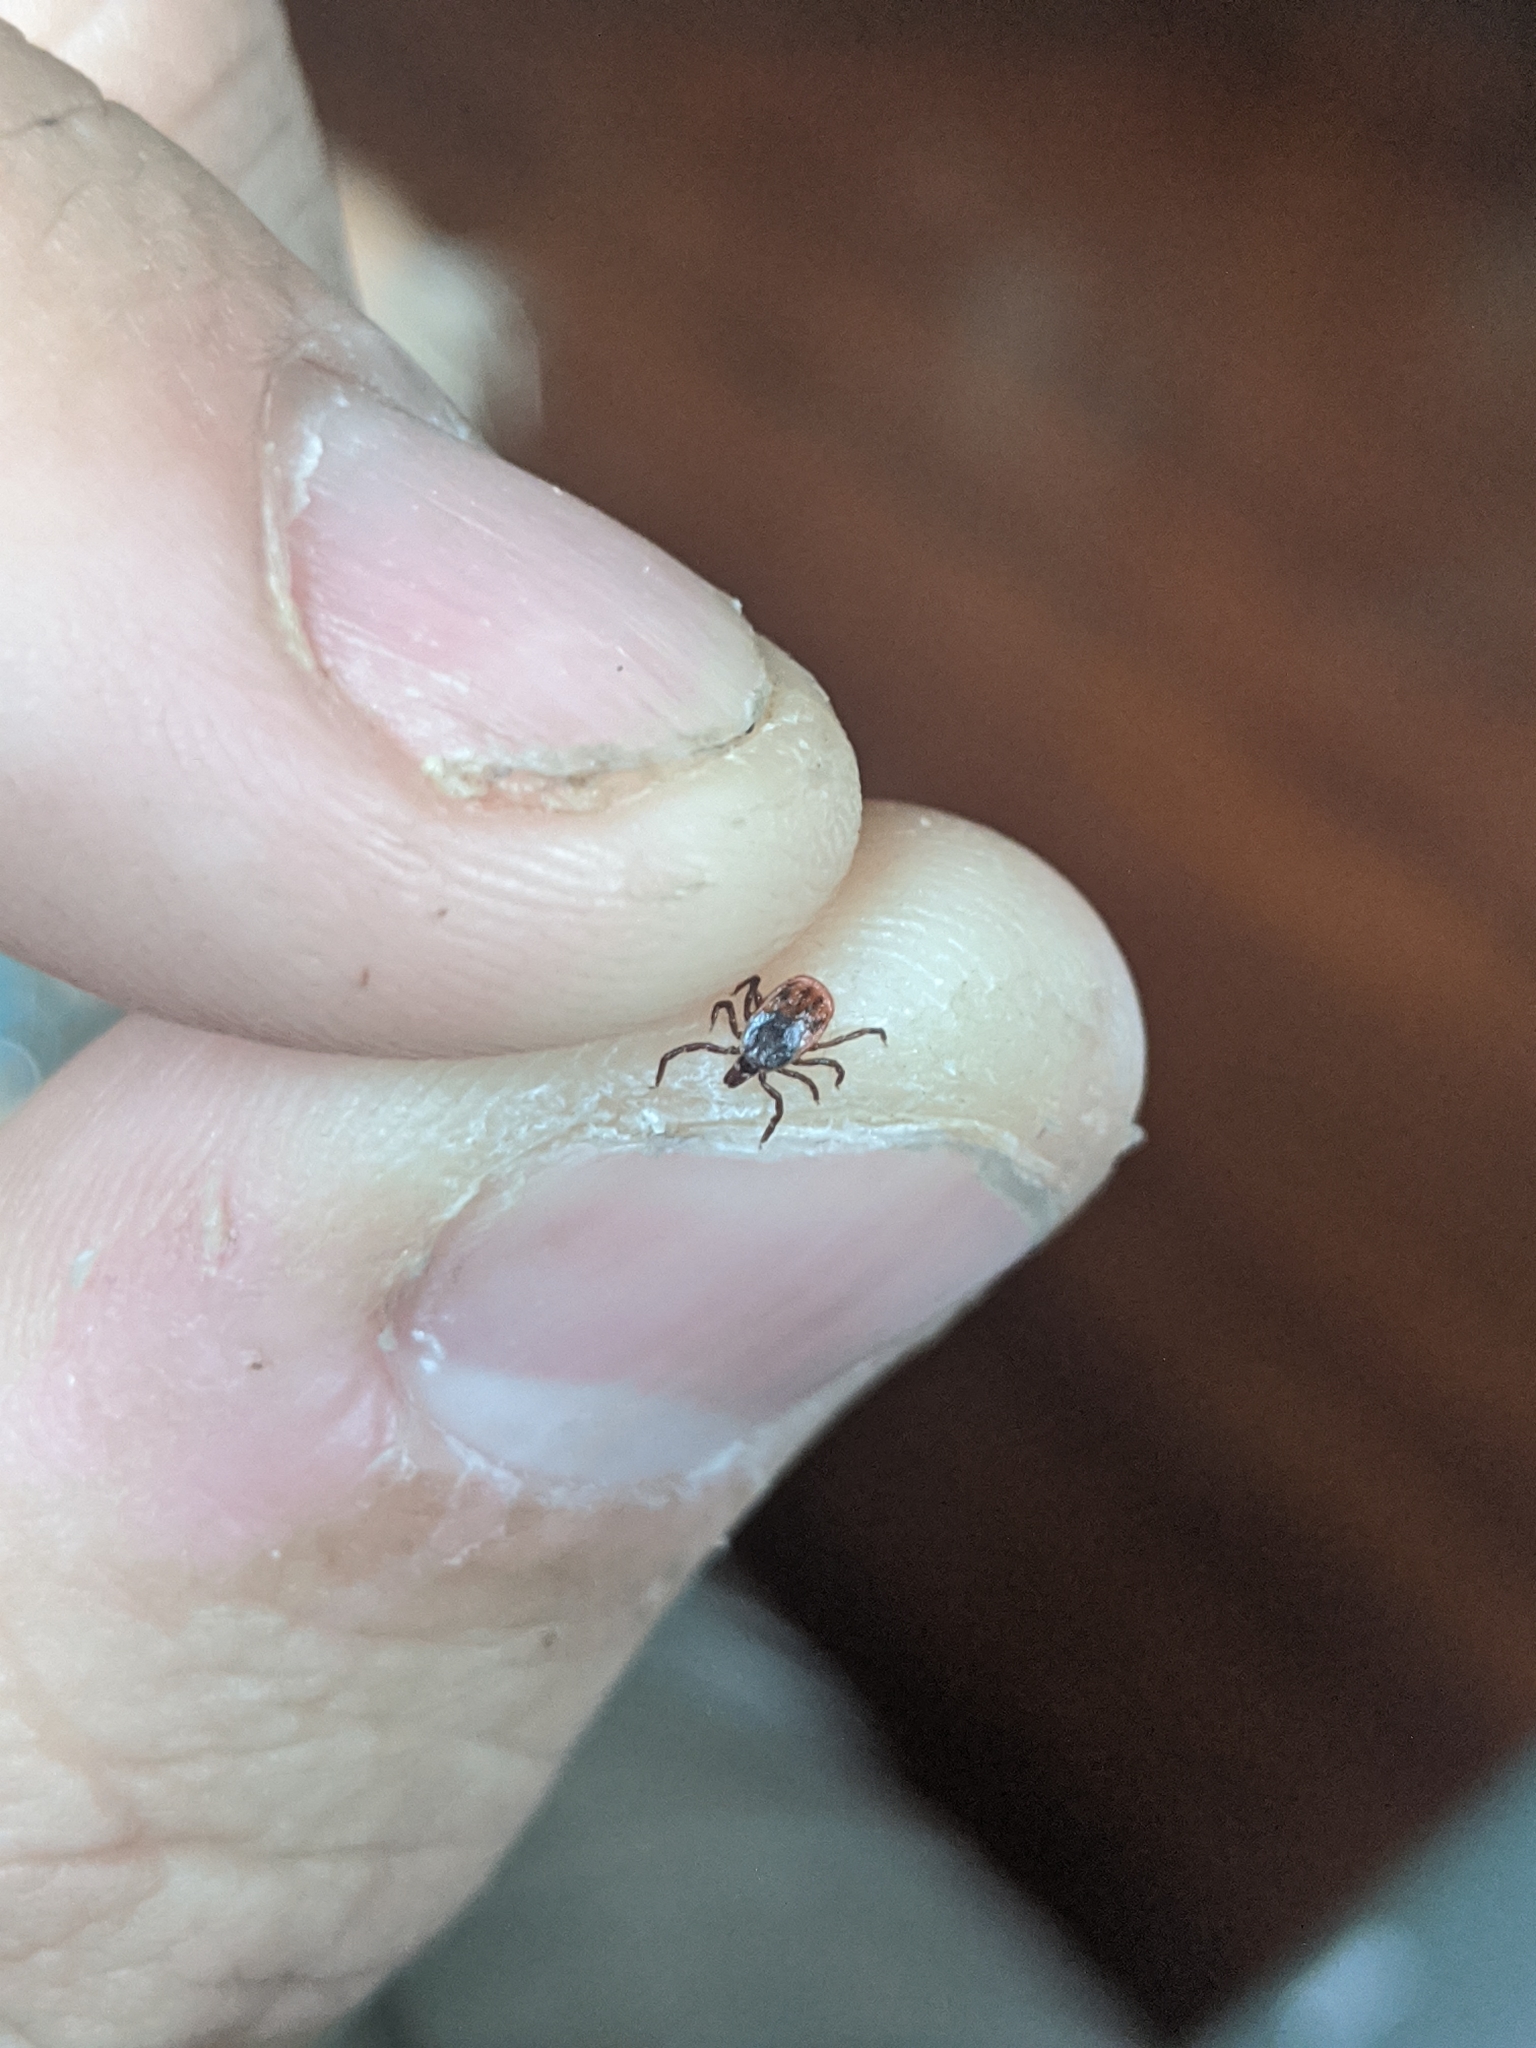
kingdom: Animalia
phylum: Arthropoda
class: Arachnida
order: Ixodida
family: Ixodidae
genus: Ixodes
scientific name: Ixodes scapularis
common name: Black legged tick
